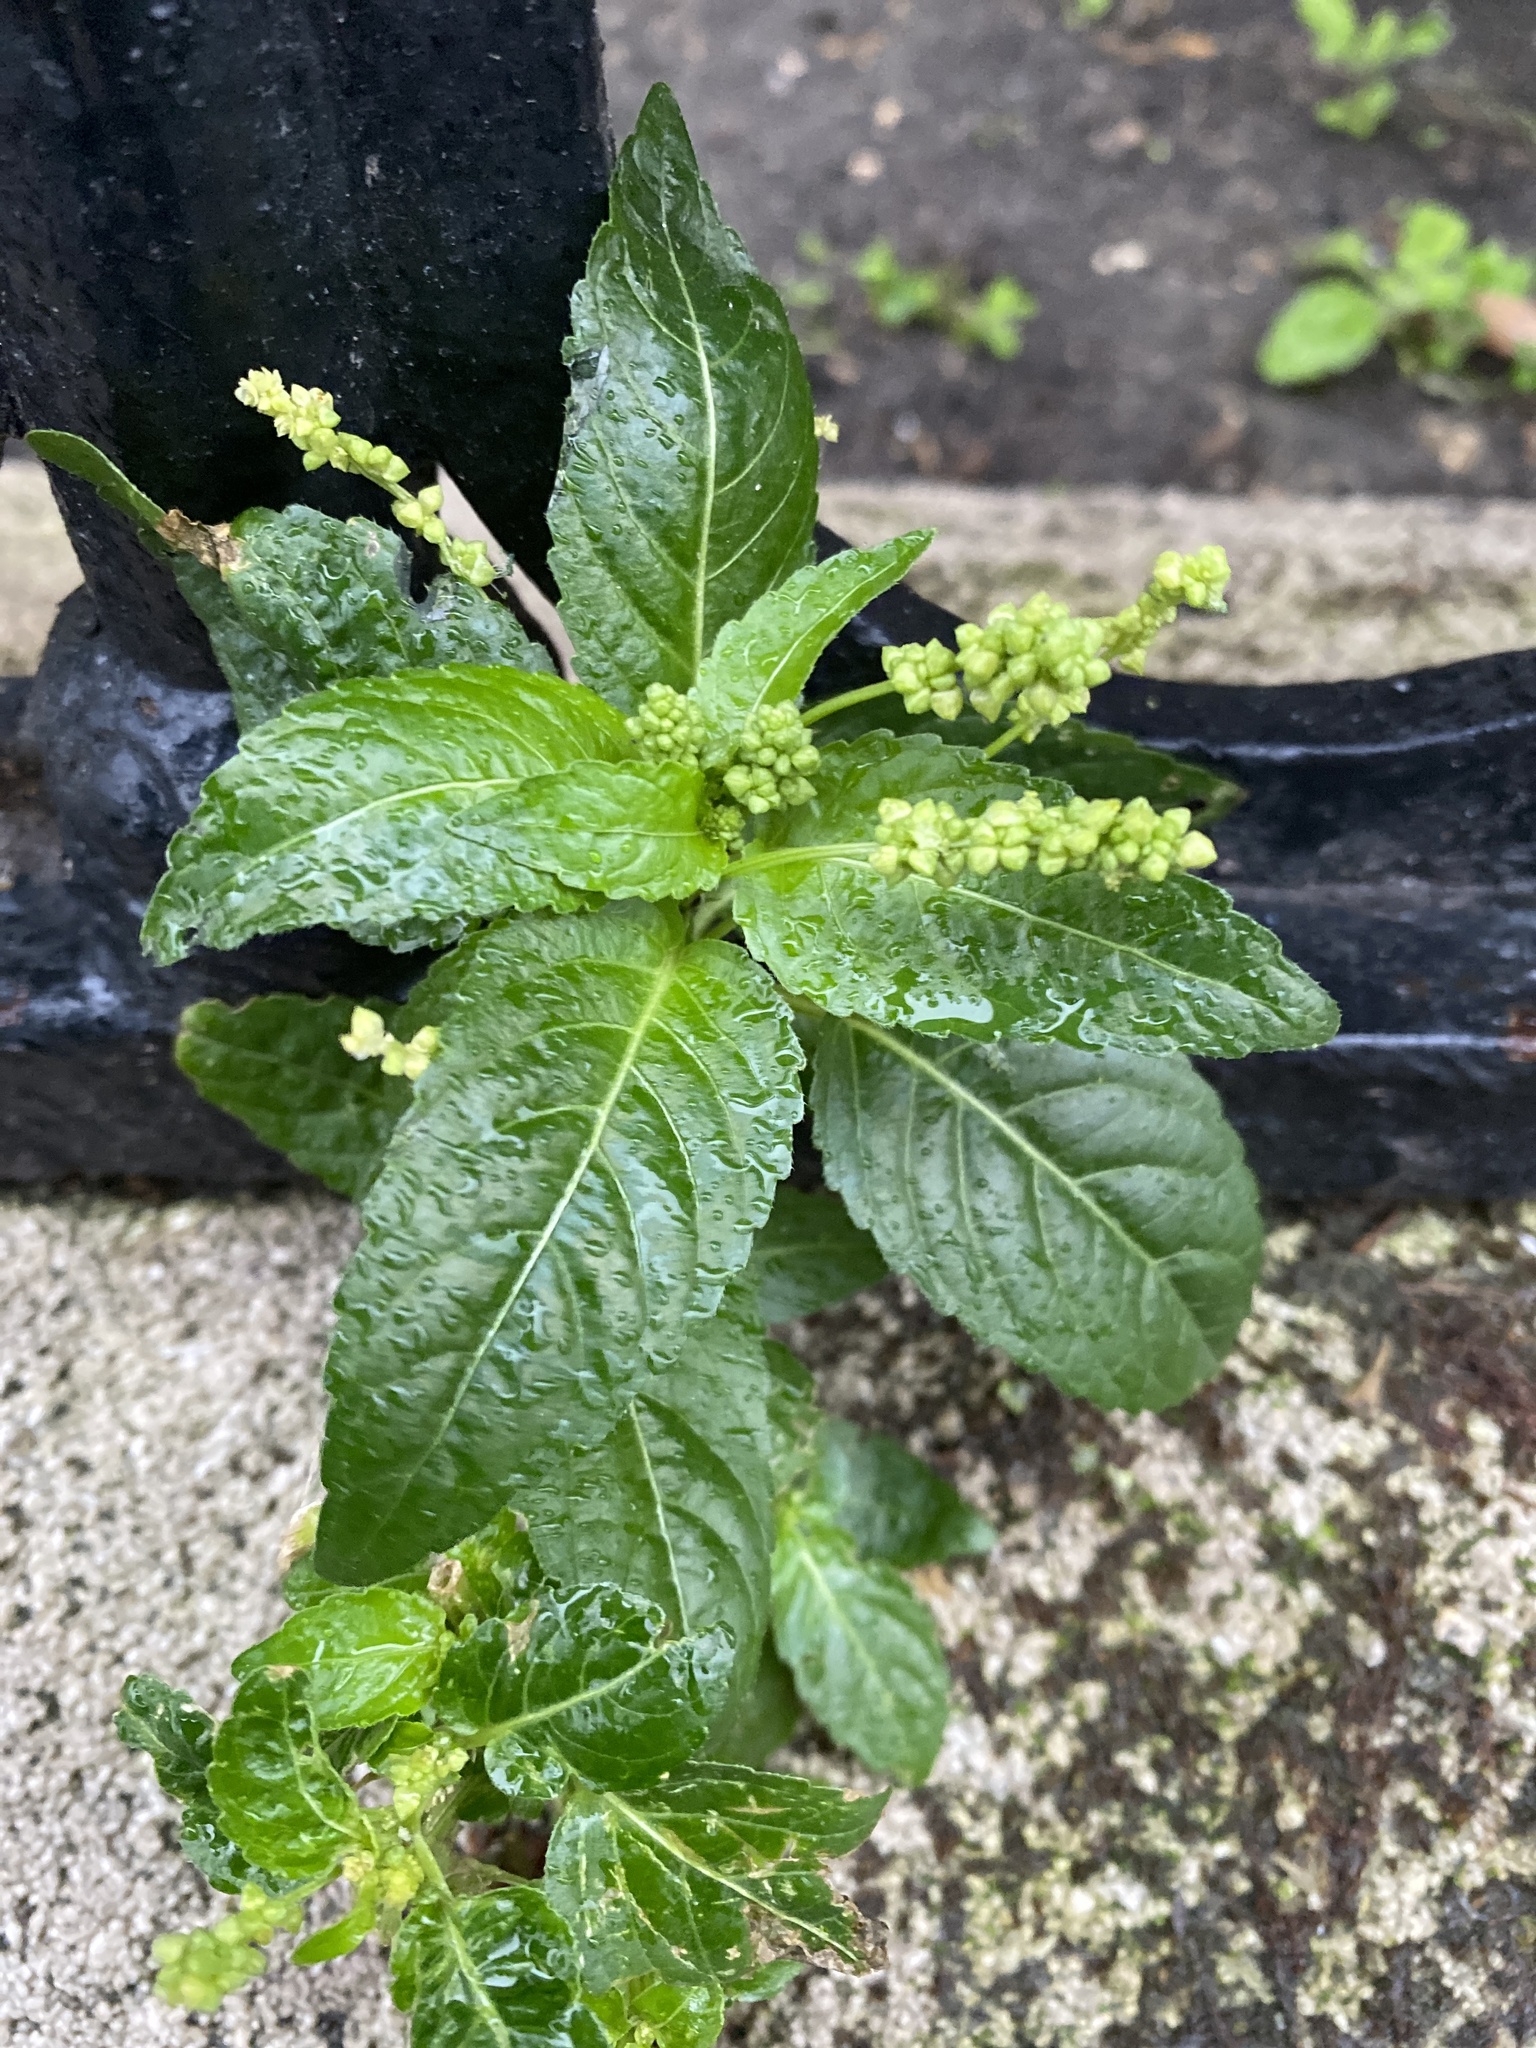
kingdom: Plantae
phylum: Tracheophyta
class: Magnoliopsida
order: Malpighiales
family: Euphorbiaceae
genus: Mercurialis
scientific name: Mercurialis annua
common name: Annual mercury
